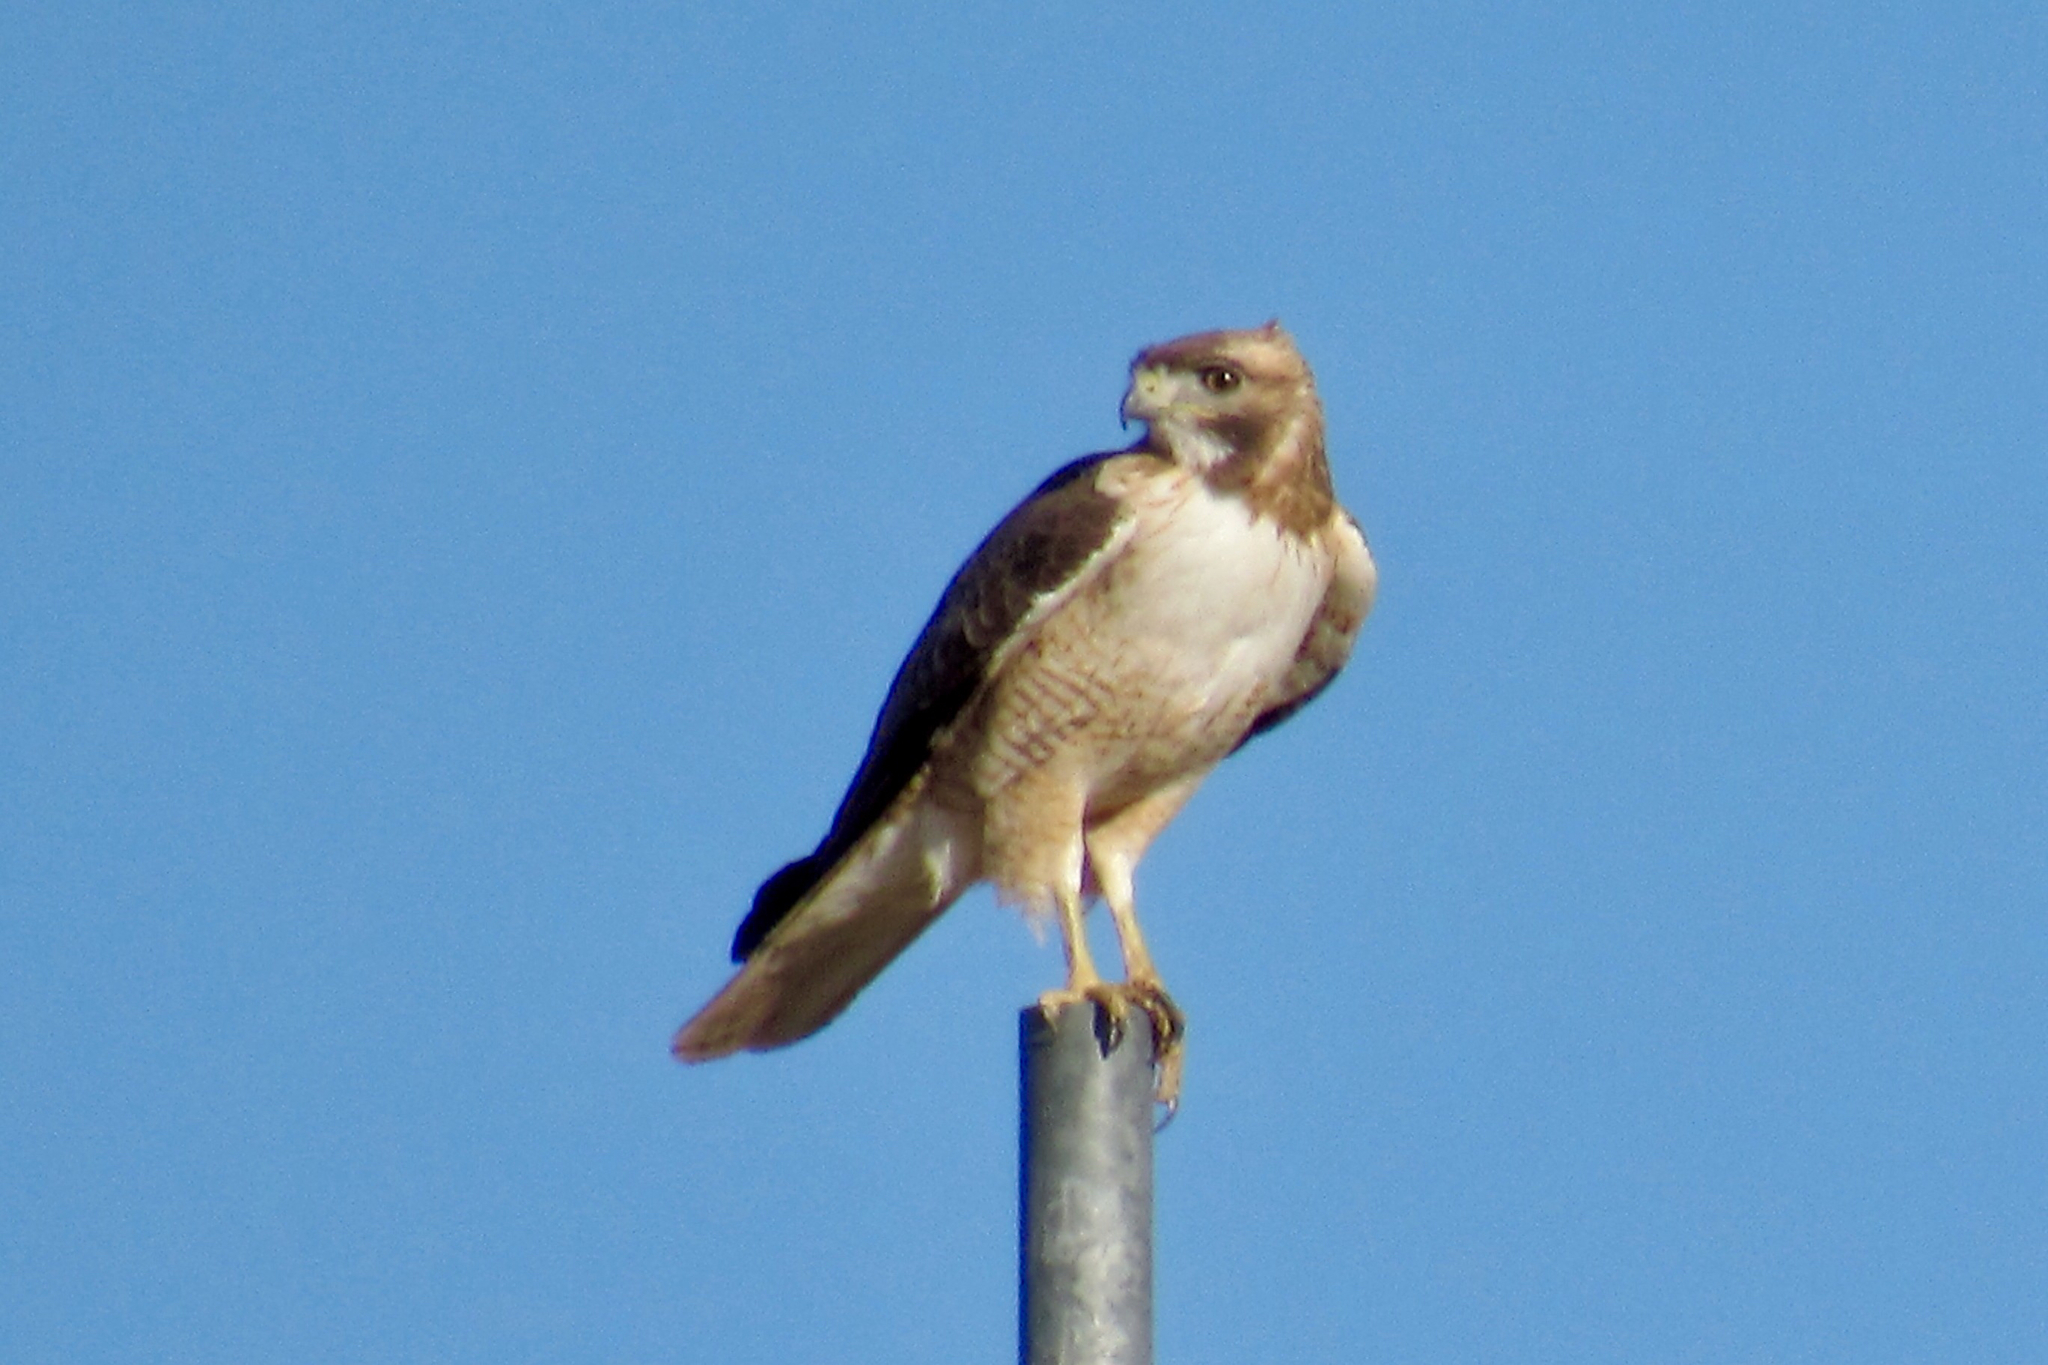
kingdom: Animalia
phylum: Chordata
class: Aves
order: Accipitriformes
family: Accipitridae
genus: Buteo
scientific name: Buteo jamaicensis
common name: Red-tailed hawk
